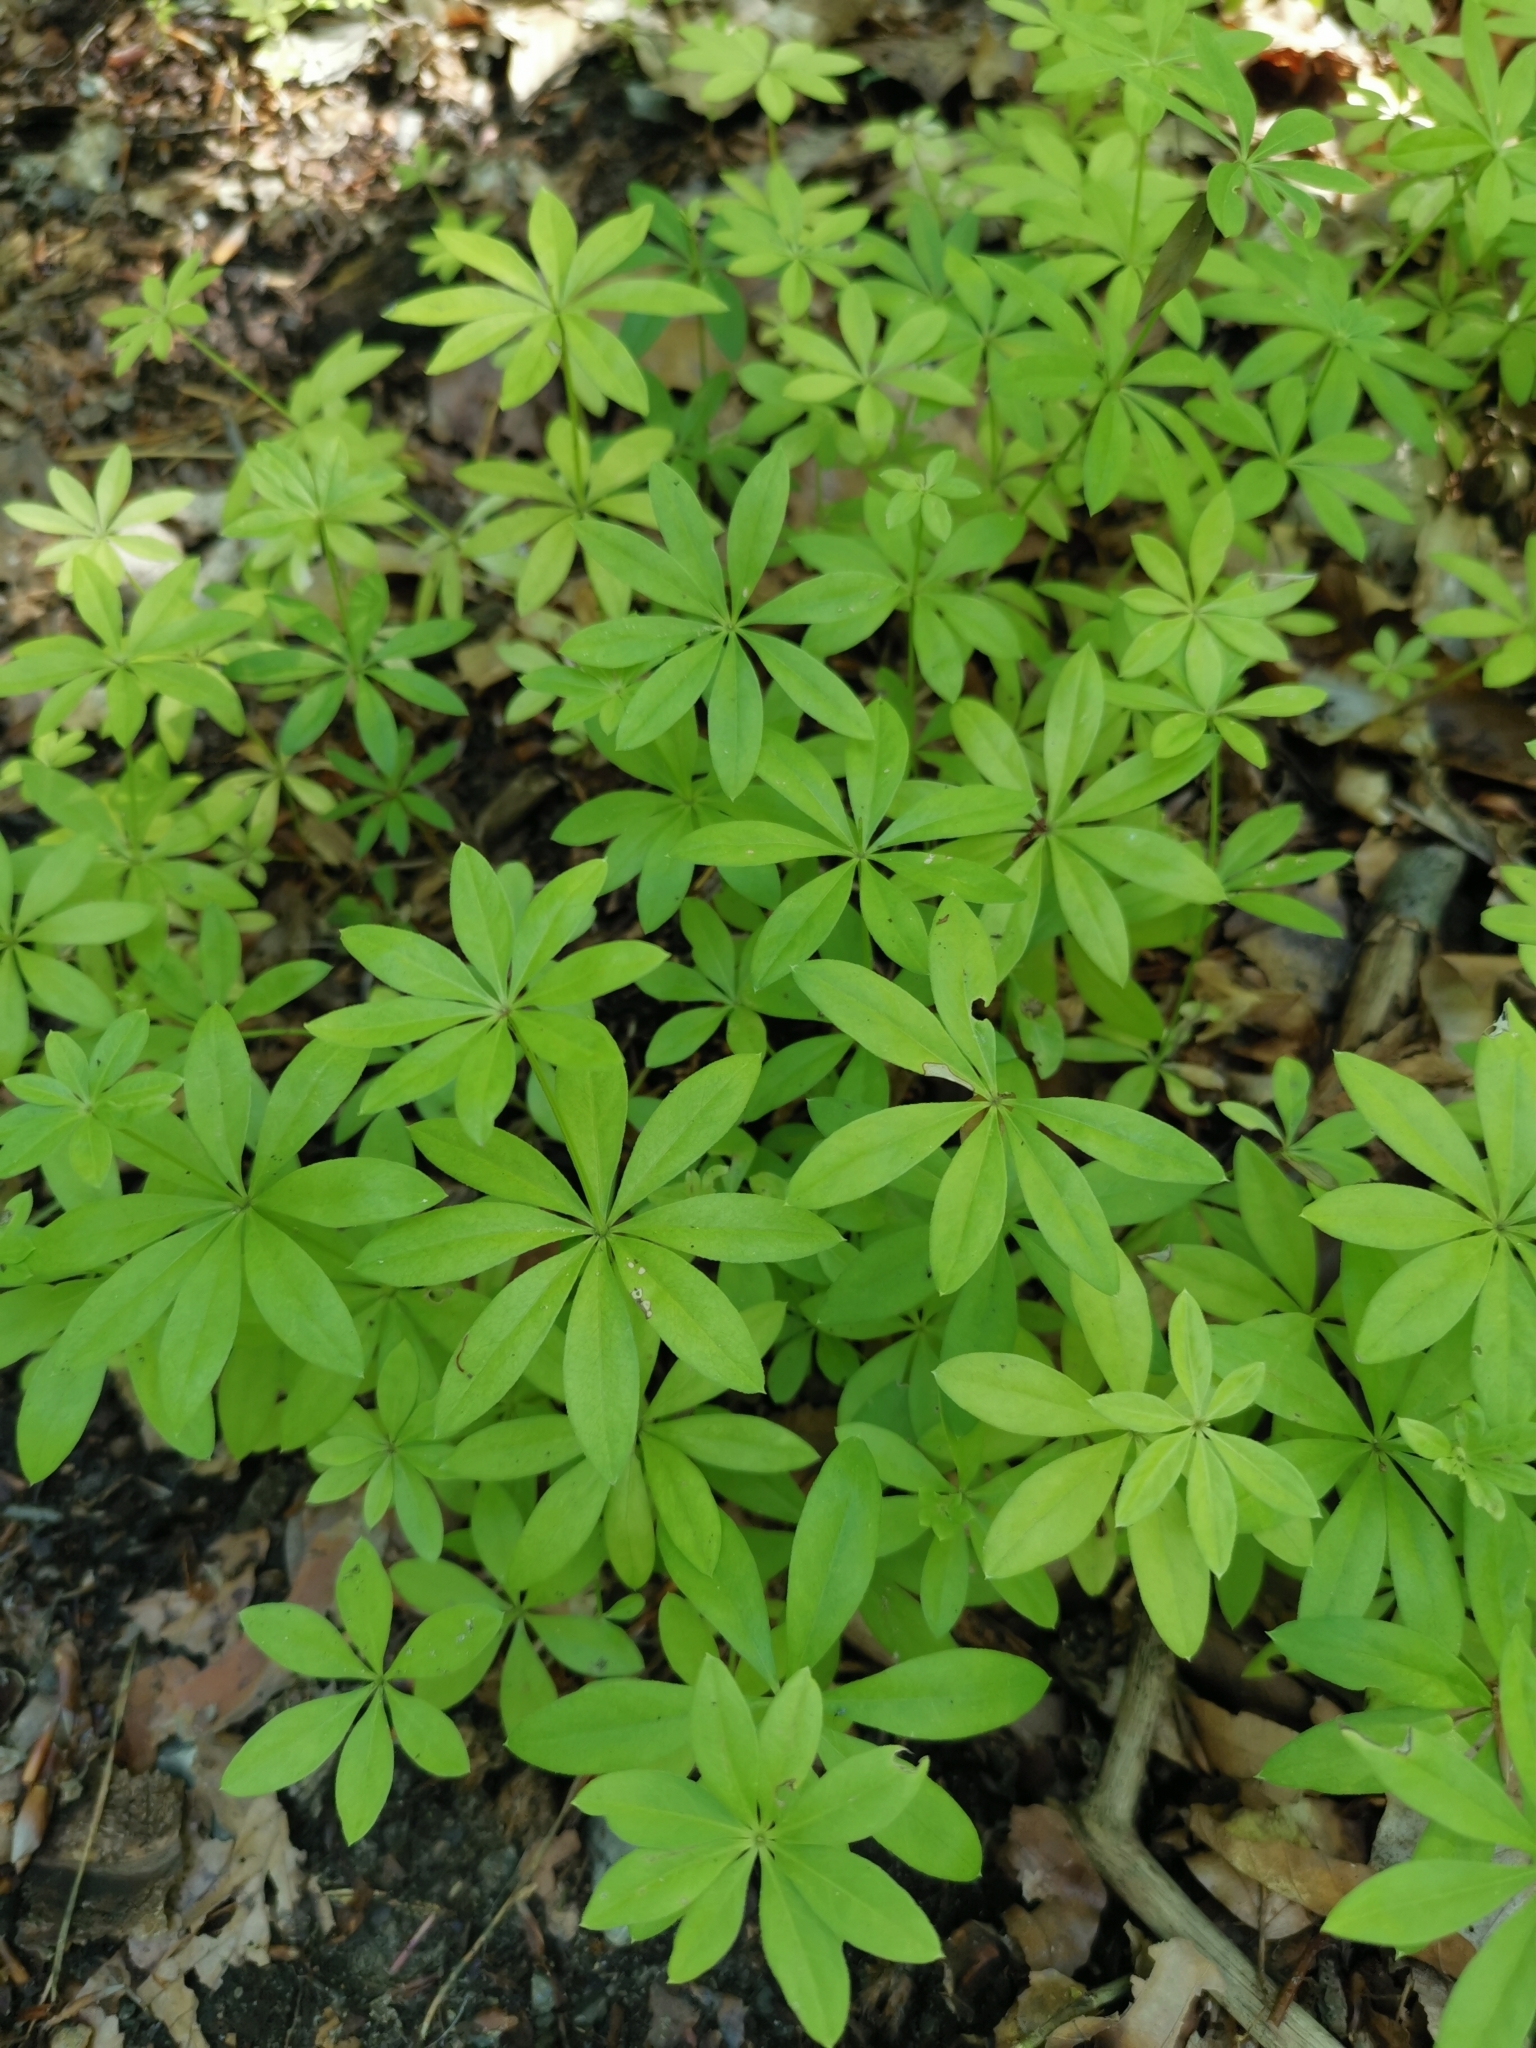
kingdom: Plantae
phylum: Tracheophyta
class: Magnoliopsida
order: Gentianales
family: Rubiaceae
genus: Galium
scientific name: Galium odoratum
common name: Sweet woodruff
